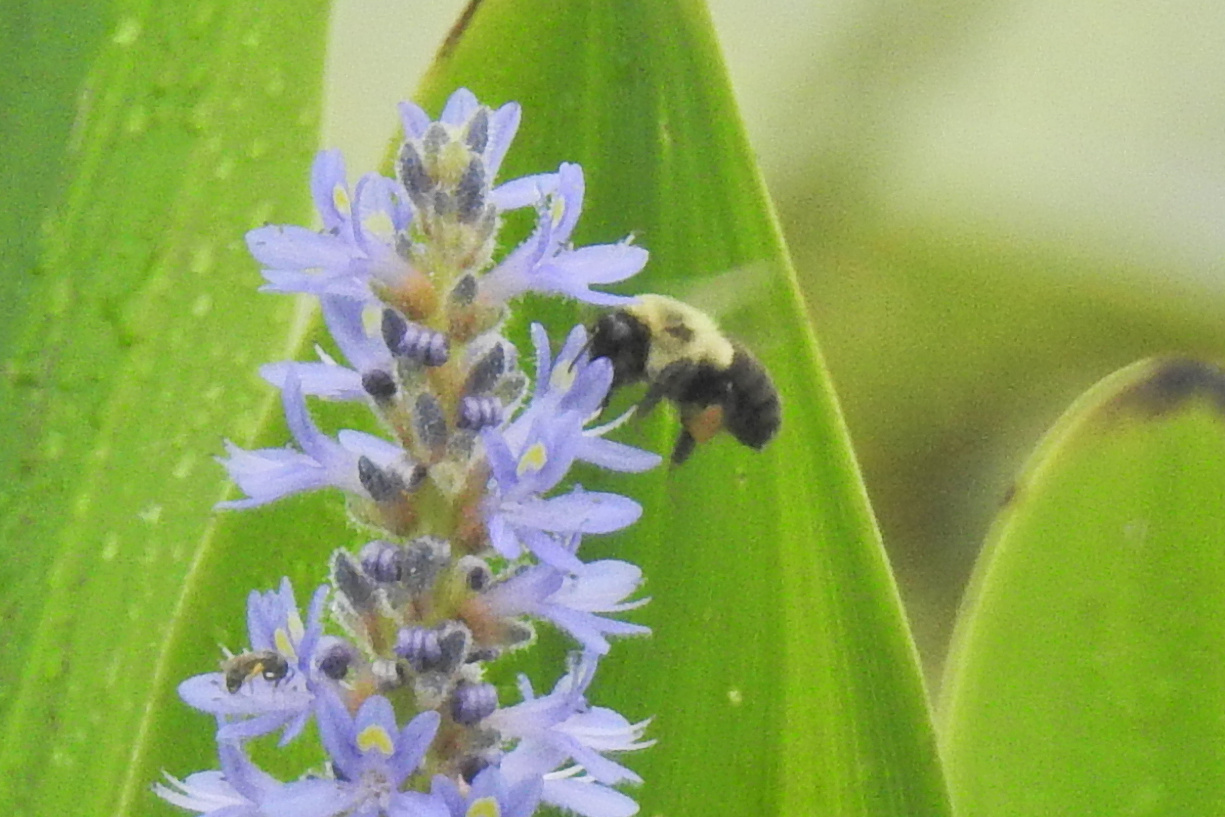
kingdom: Animalia
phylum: Arthropoda
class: Insecta
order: Hymenoptera
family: Apidae
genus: Bombus
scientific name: Bombus impatiens
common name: Common eastern bumble bee
